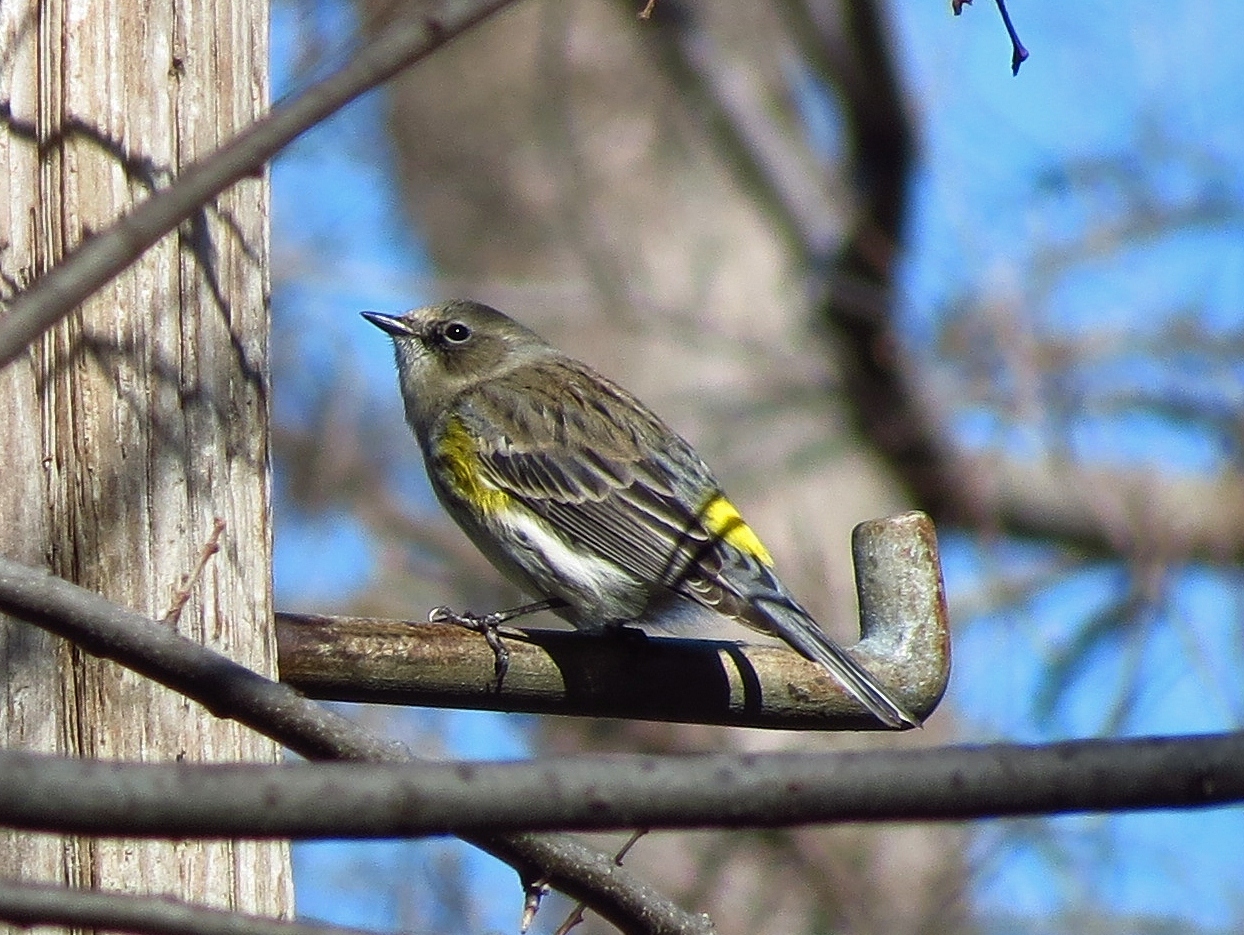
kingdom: Animalia
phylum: Chordata
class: Aves
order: Passeriformes
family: Parulidae
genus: Setophaga
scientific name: Setophaga coronata
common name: Myrtle warbler
